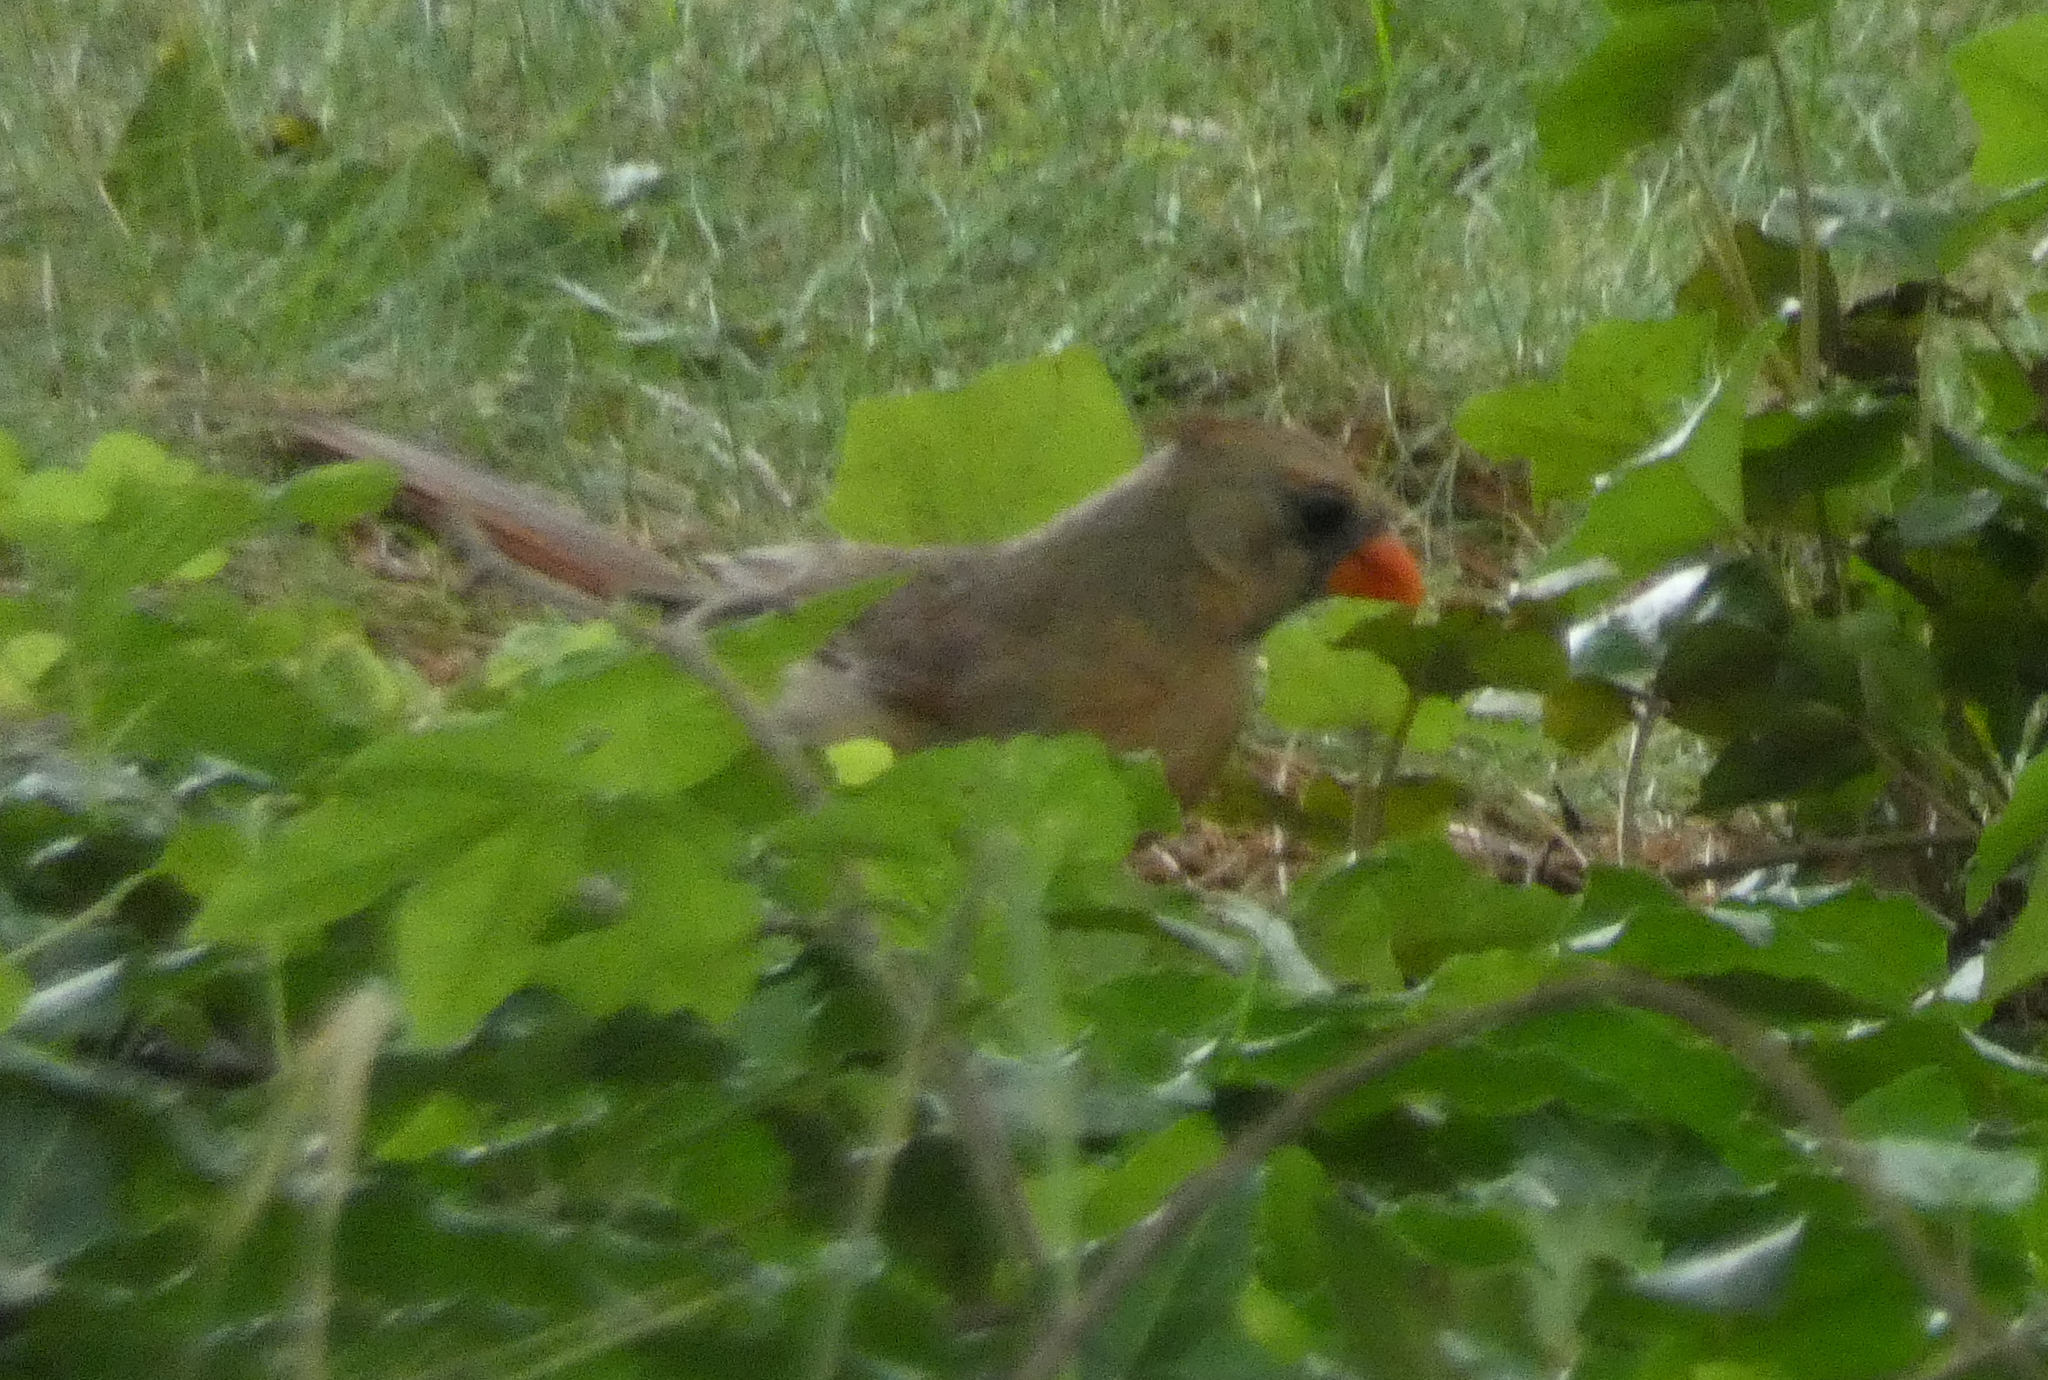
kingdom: Animalia
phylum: Chordata
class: Aves
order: Passeriformes
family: Cardinalidae
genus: Cardinalis
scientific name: Cardinalis cardinalis
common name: Northern cardinal
